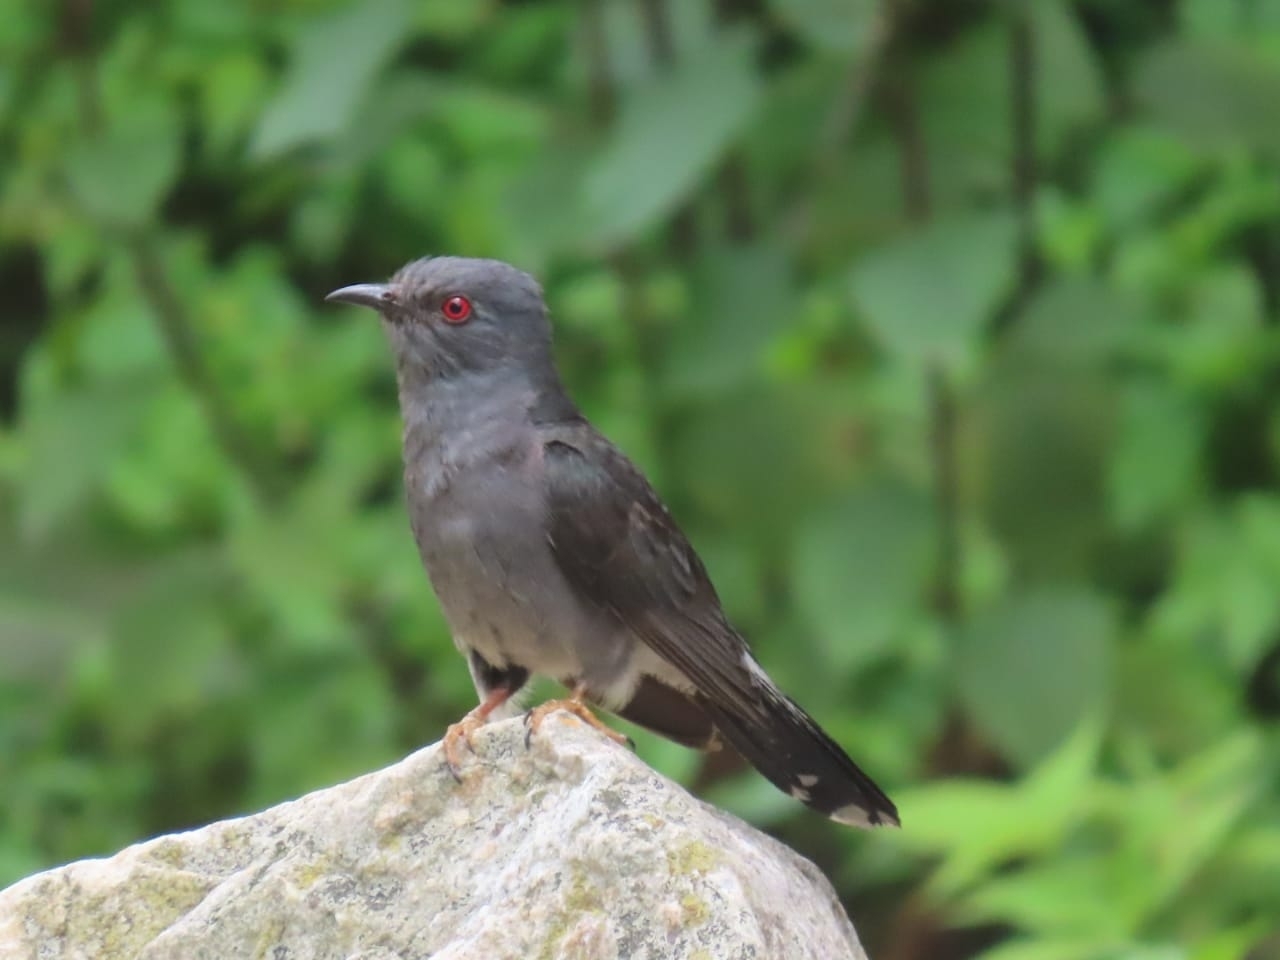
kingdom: Animalia
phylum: Chordata
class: Aves
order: Cuculiformes
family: Cuculidae
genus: Cacomantis
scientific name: Cacomantis passerinus
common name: Grey-bellied cuckoo
